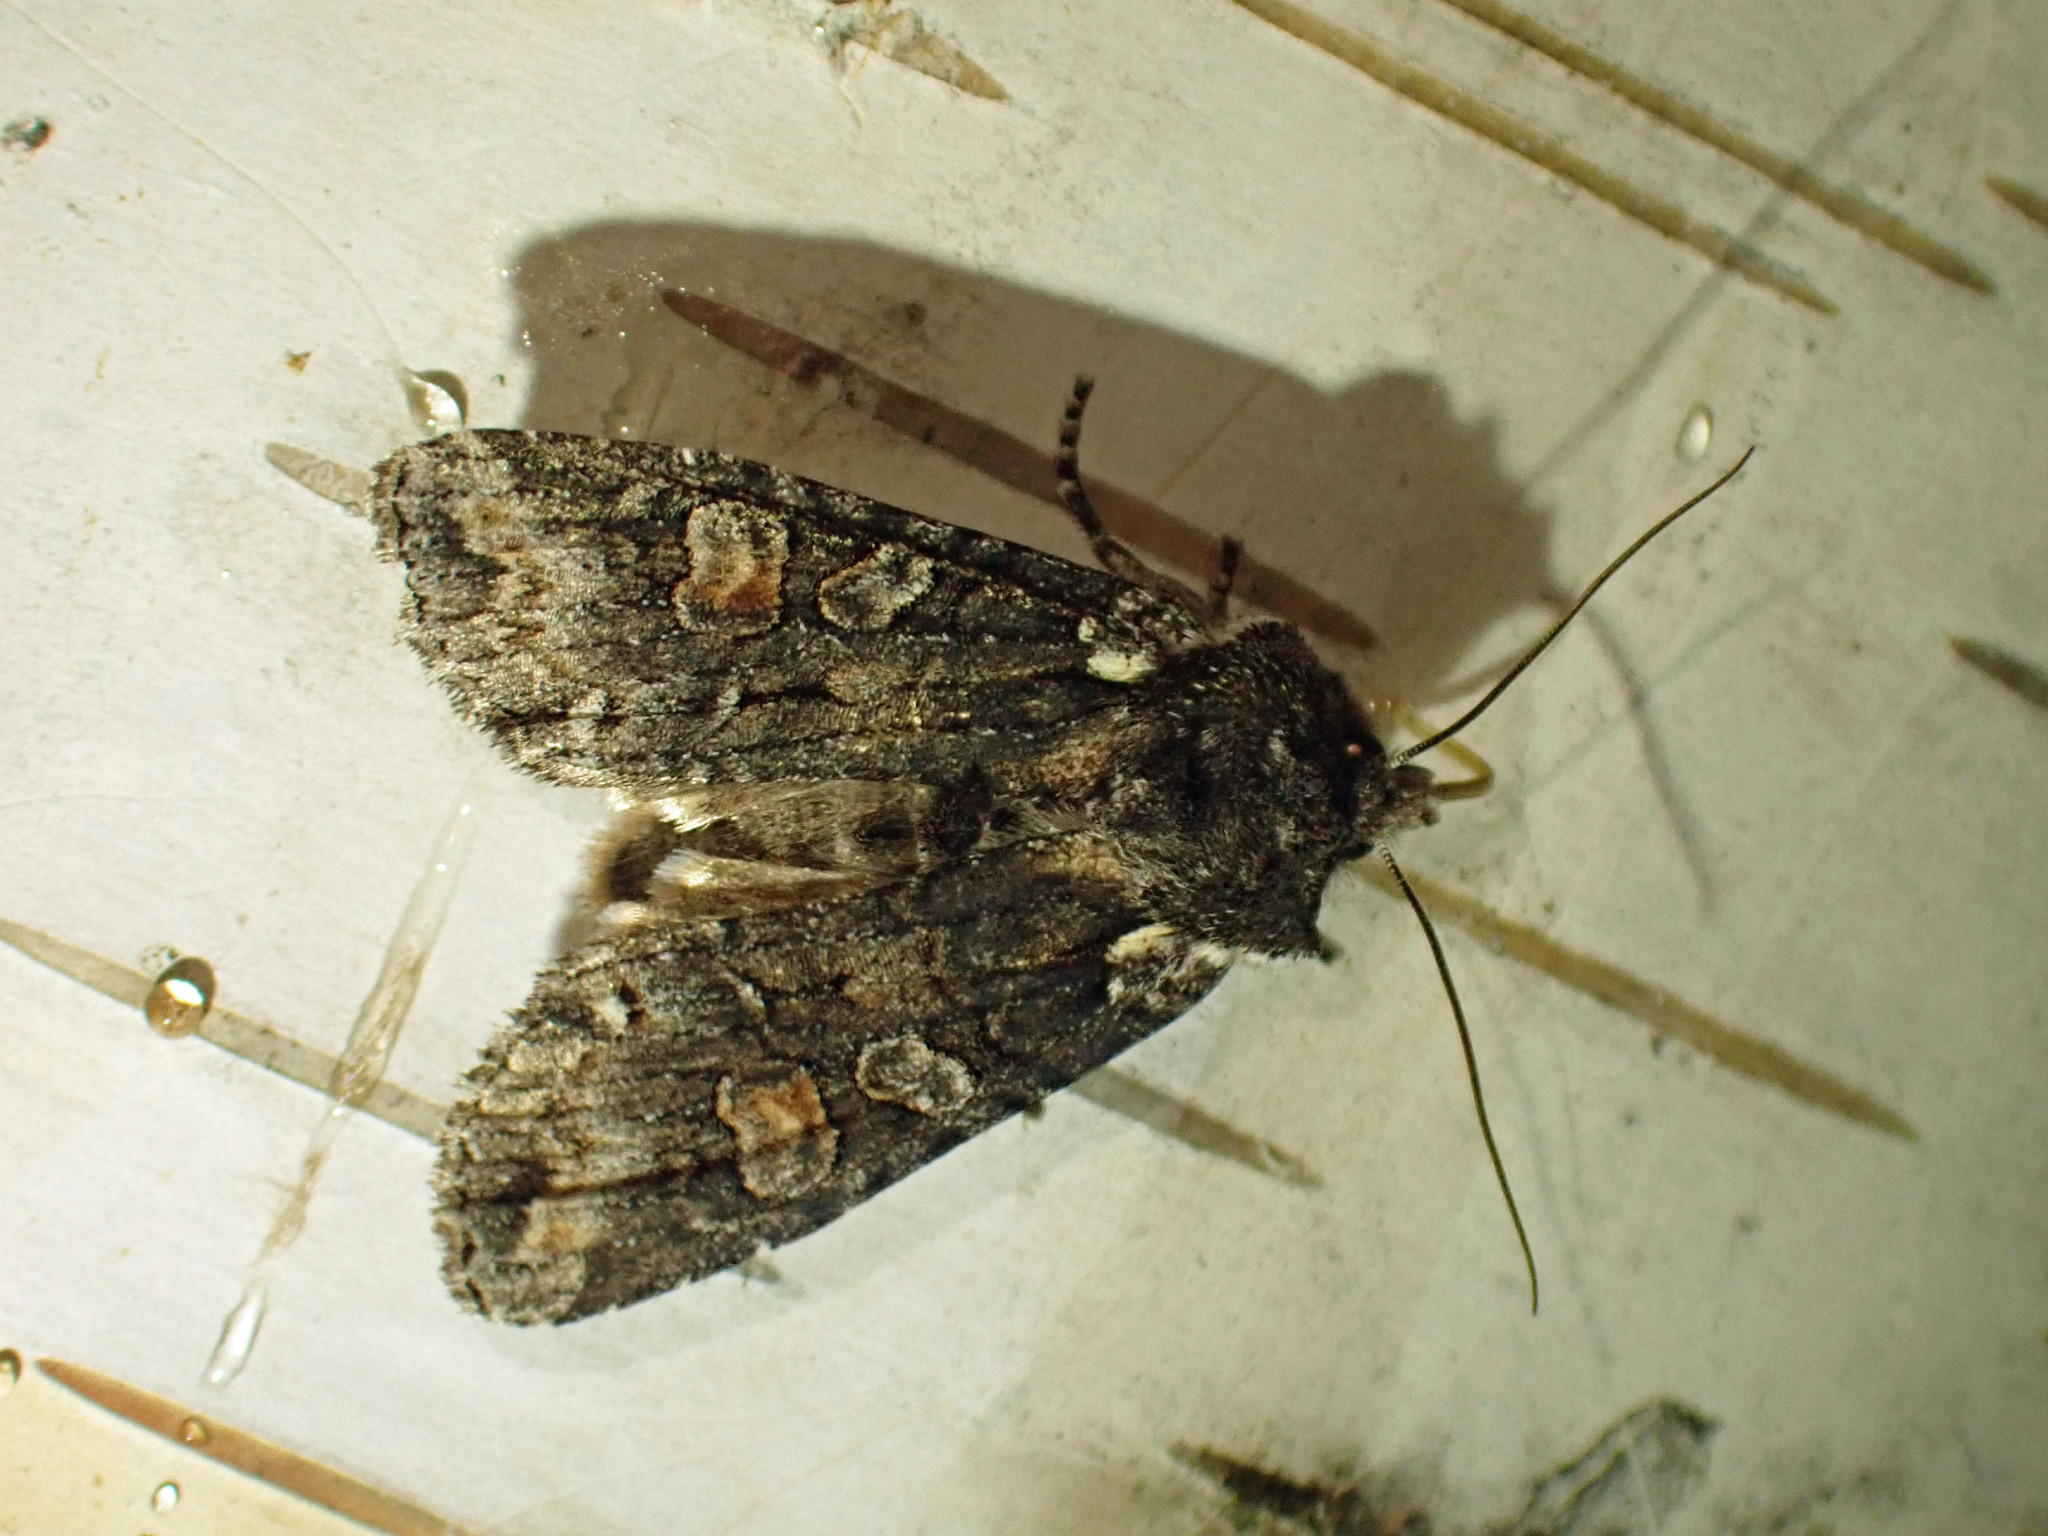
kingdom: Animalia
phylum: Arthropoda
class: Insecta
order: Lepidoptera
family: Noctuidae
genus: Lithophane
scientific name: Lithophane pexata
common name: Plush-naped pinion moth
